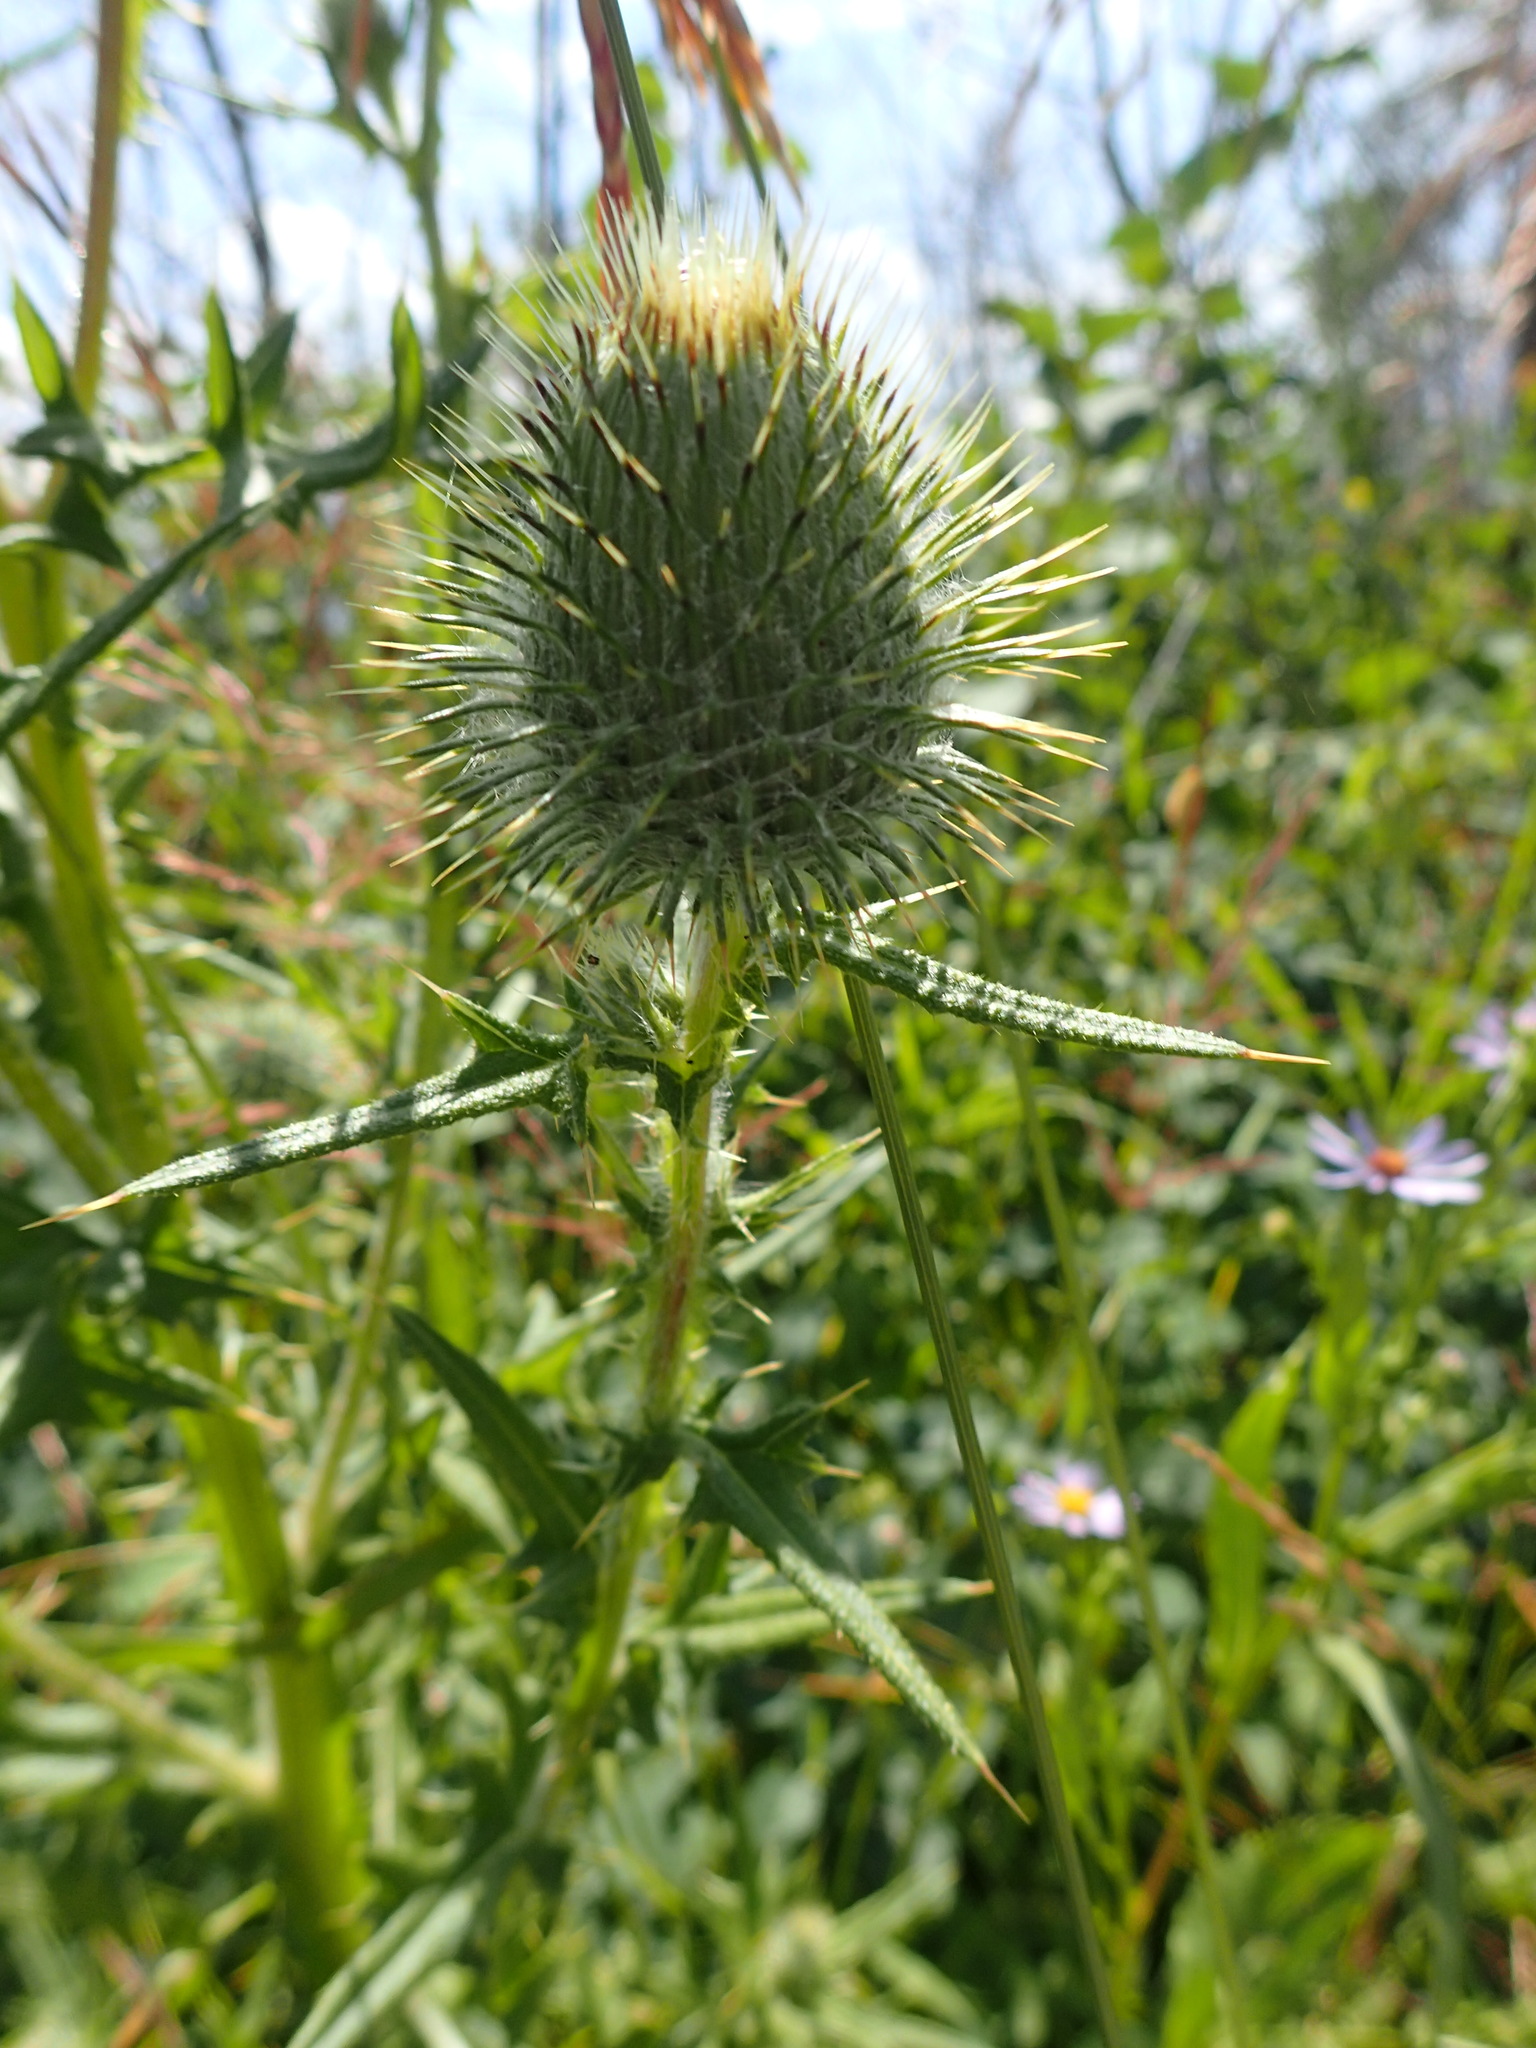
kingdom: Plantae
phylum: Tracheophyta
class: Magnoliopsida
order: Asterales
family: Asteraceae
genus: Cirsium
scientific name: Cirsium vulgare
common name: Bull thistle
